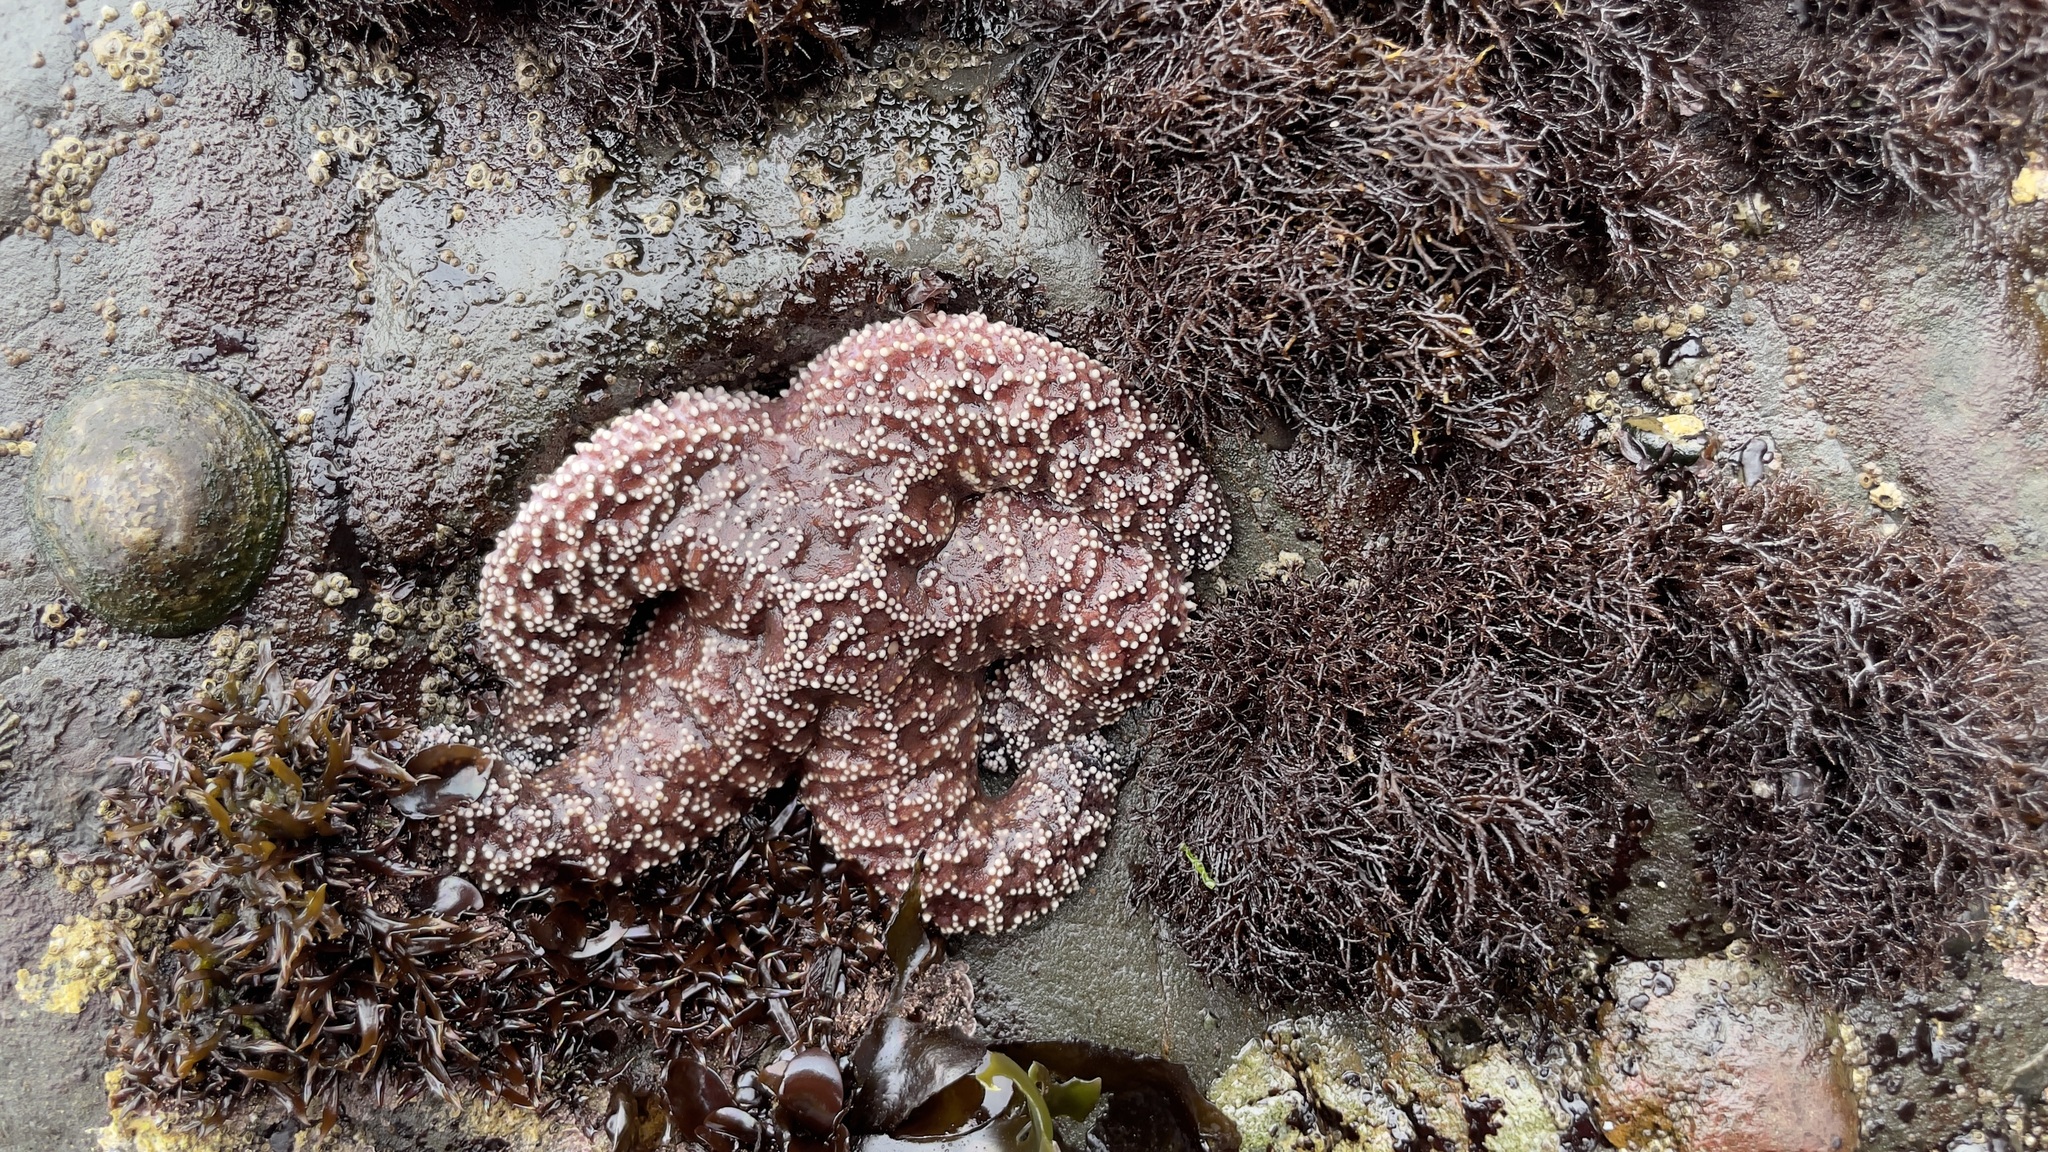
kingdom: Animalia
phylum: Echinodermata
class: Asteroidea
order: Forcipulatida
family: Asteriidae
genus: Pisaster
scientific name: Pisaster ochraceus
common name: Ochre stars
